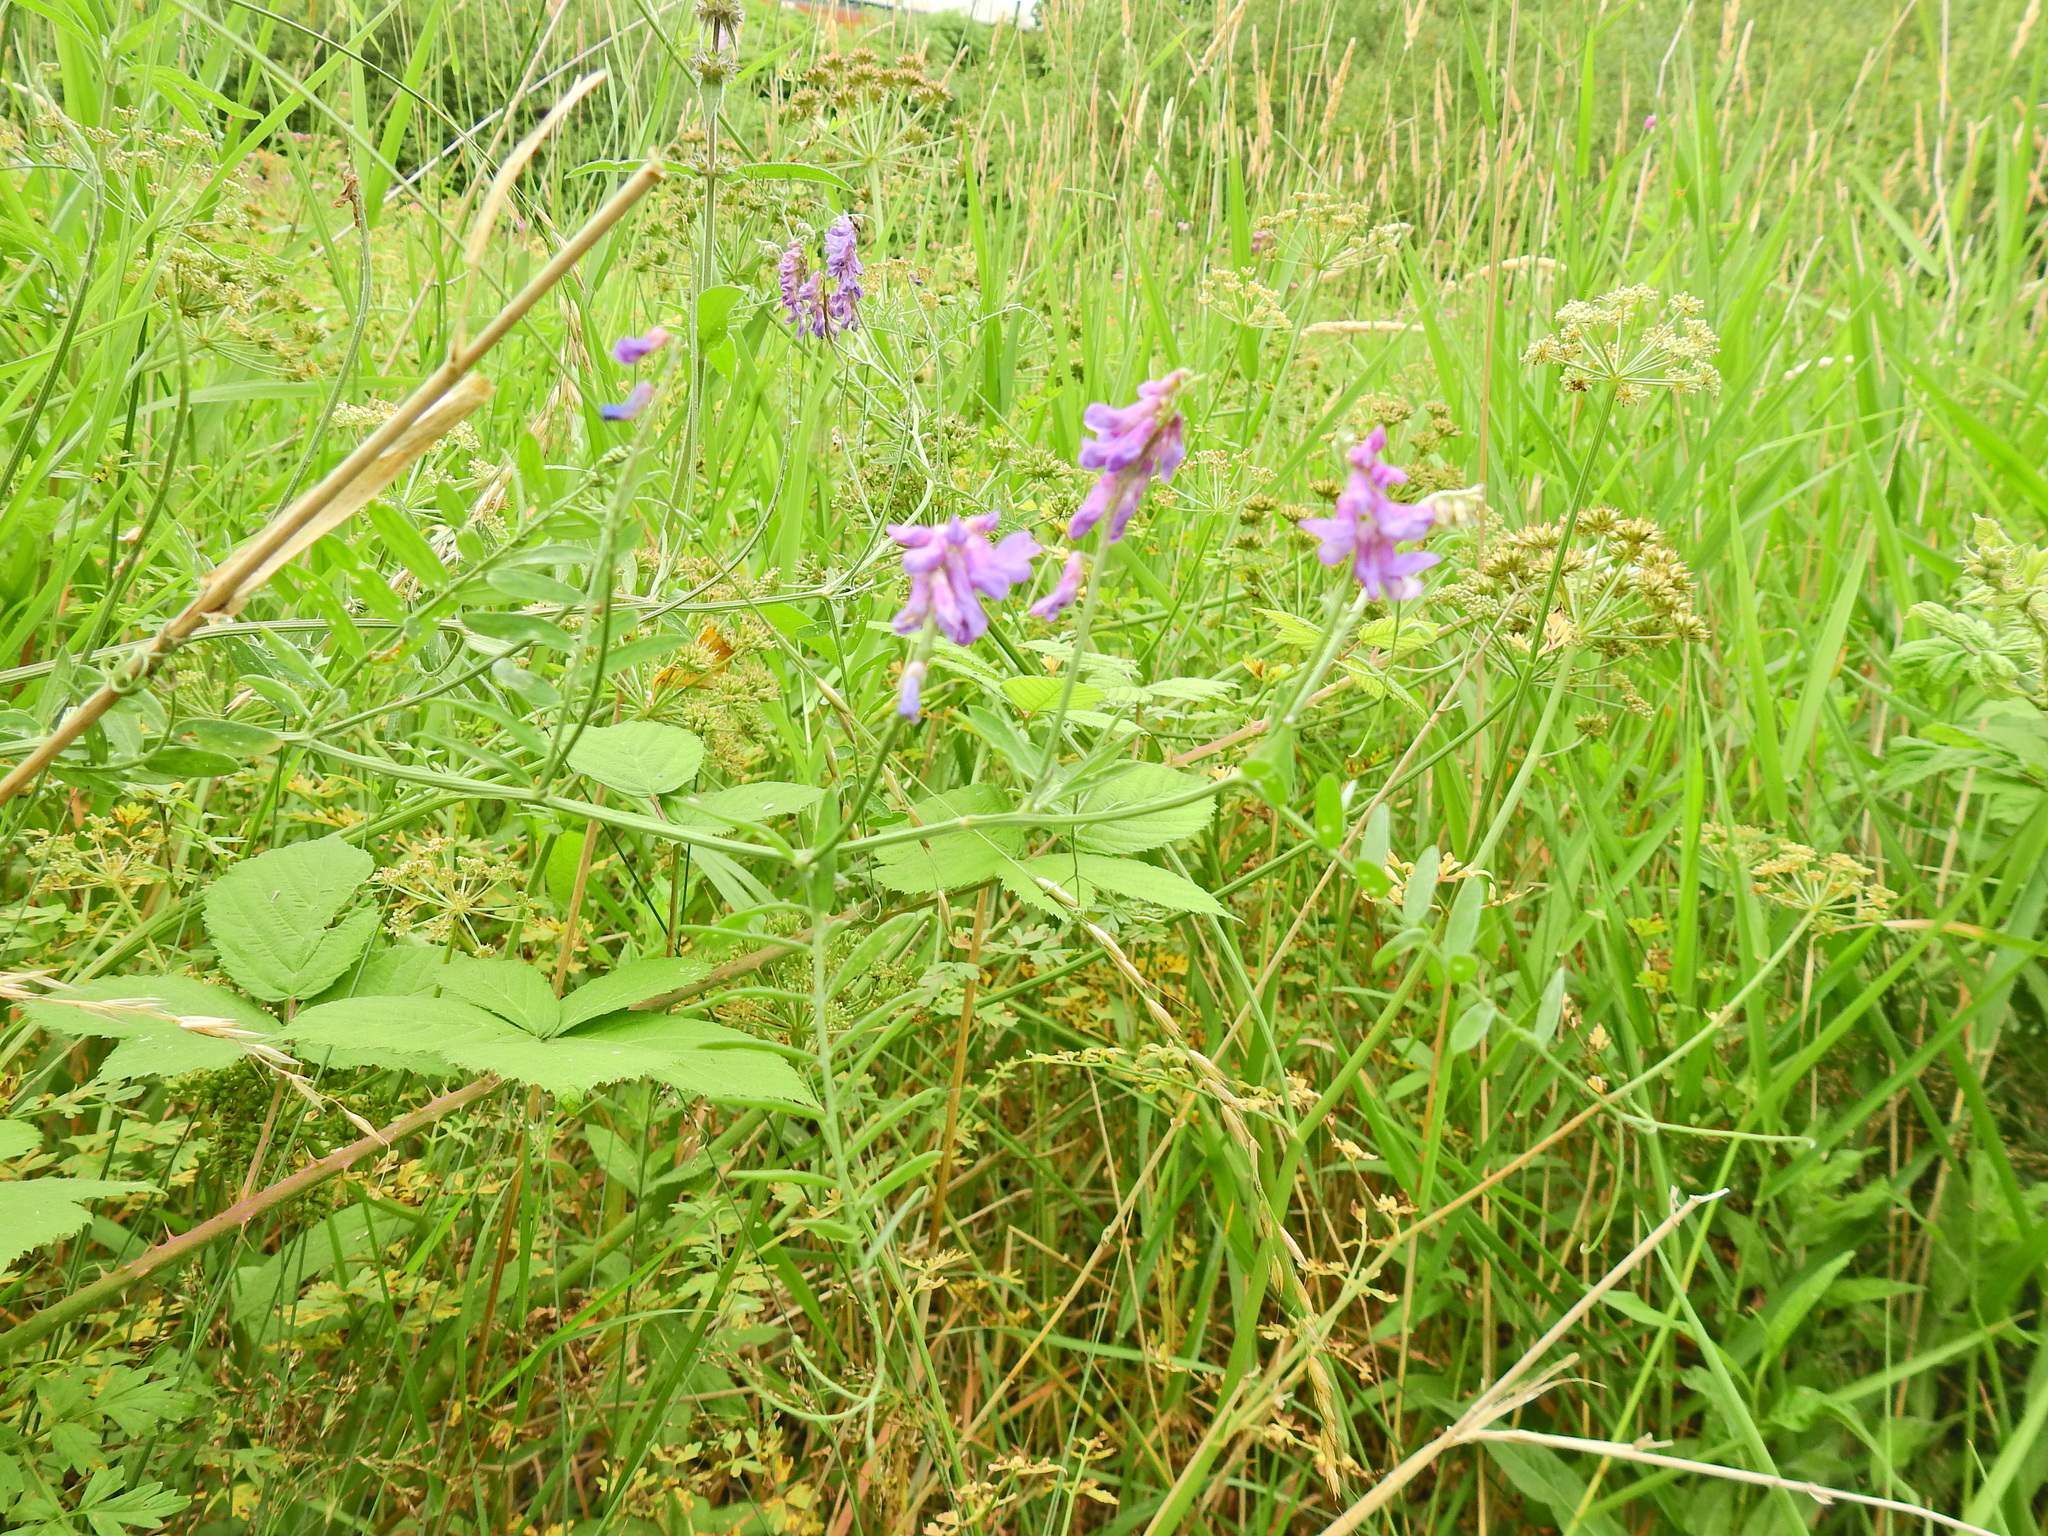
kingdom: Plantae
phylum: Tracheophyta
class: Magnoliopsida
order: Fabales
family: Fabaceae
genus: Vicia
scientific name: Vicia cracca
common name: Bird vetch
